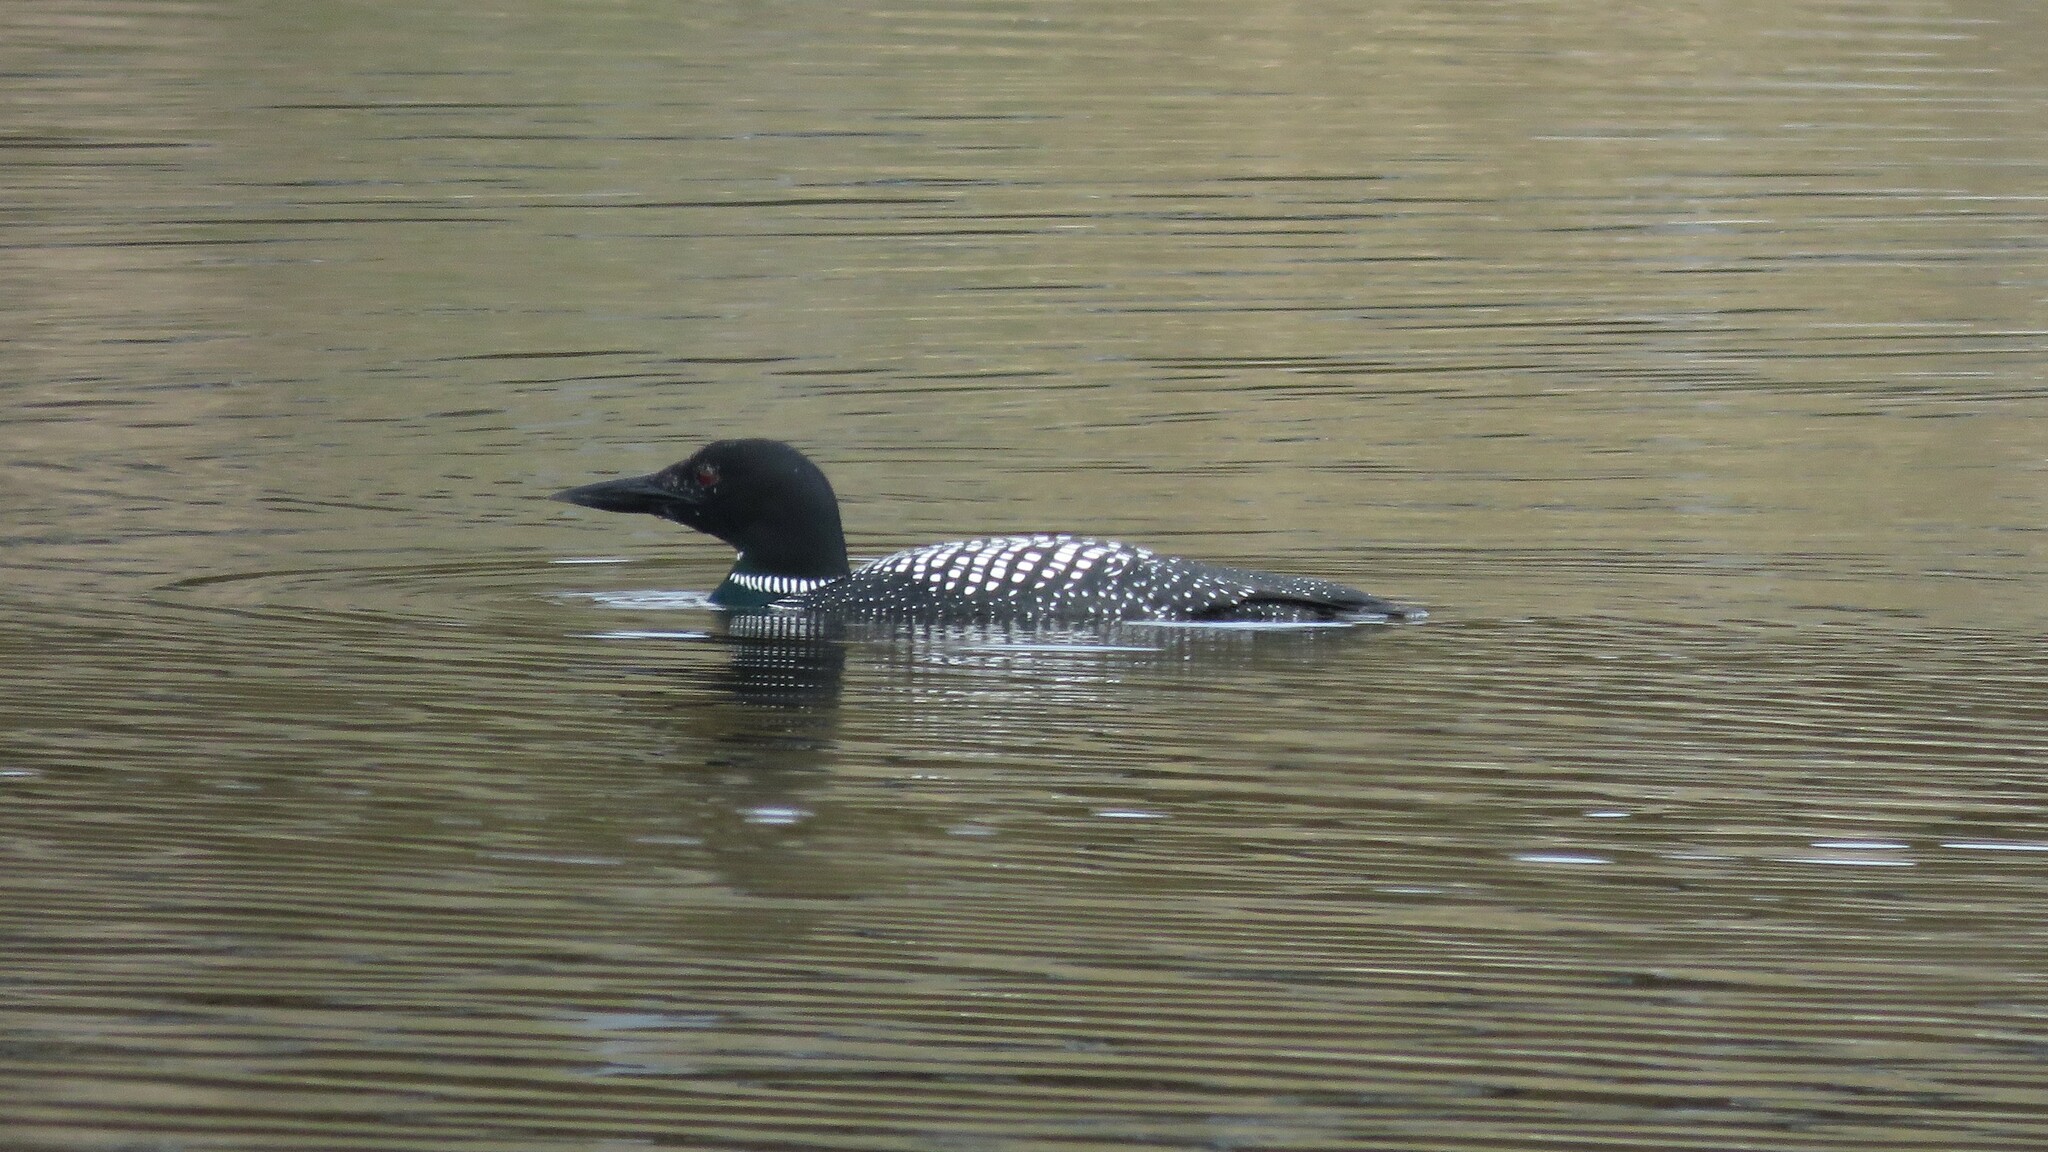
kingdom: Animalia
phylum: Chordata
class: Aves
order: Gaviiformes
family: Gaviidae
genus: Gavia
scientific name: Gavia immer
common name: Common loon
